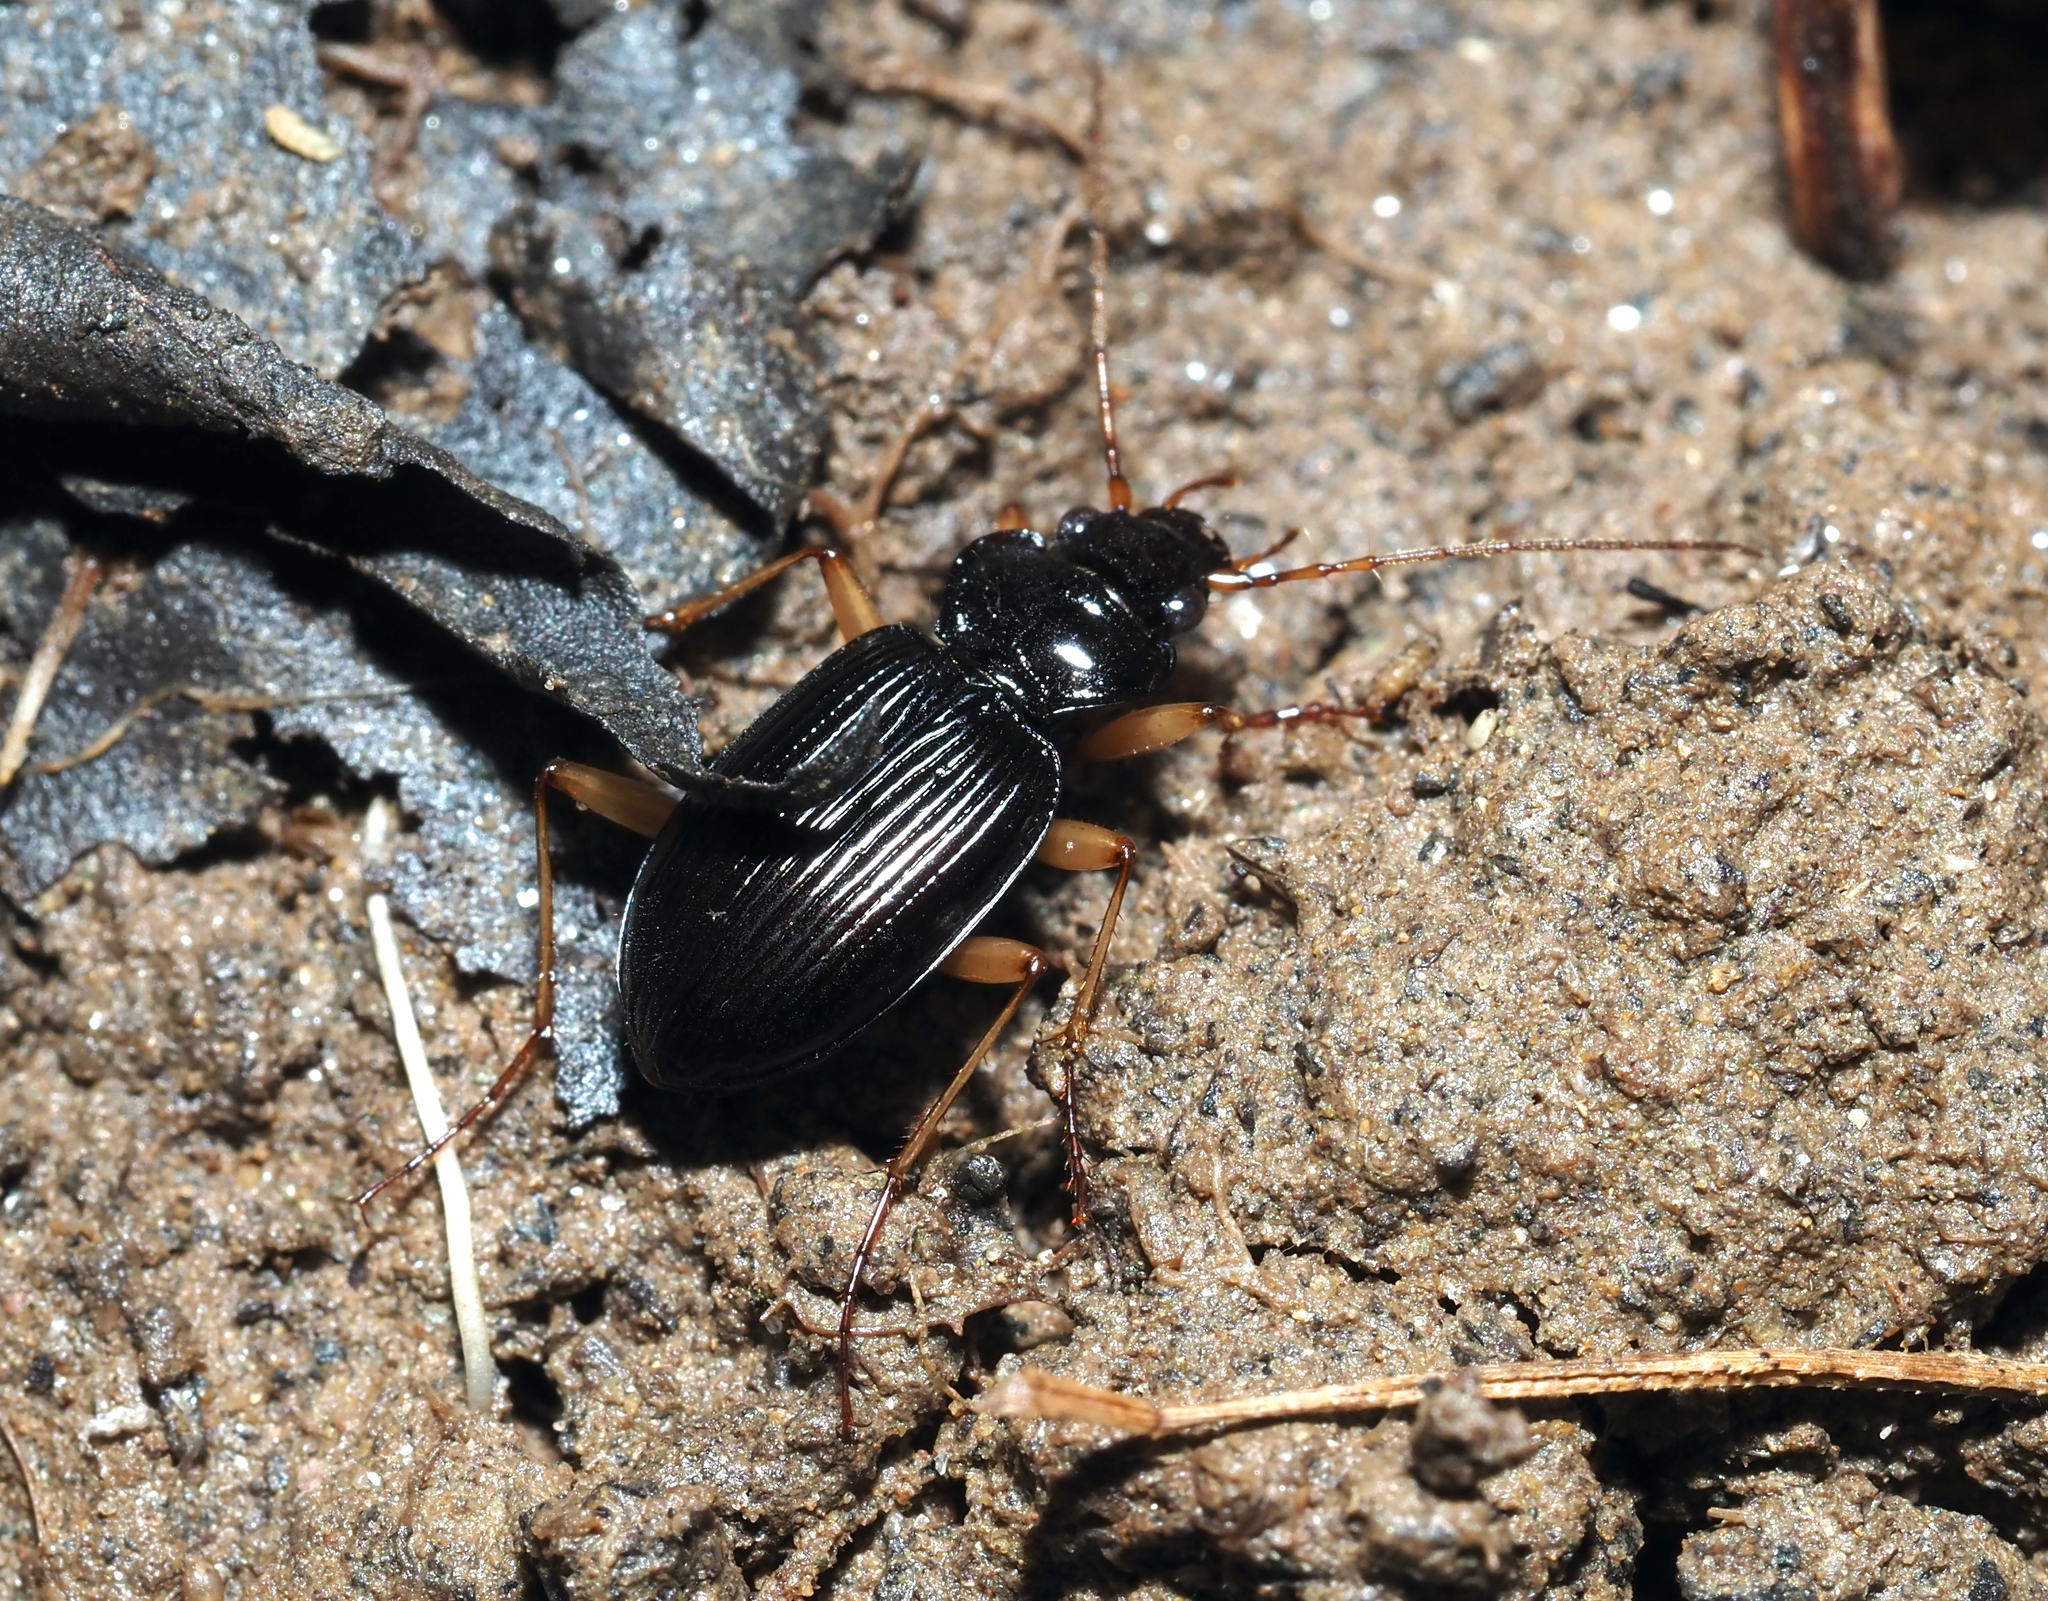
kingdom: Animalia
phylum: Arthropoda
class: Insecta
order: Coleoptera
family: Carabidae
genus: Nebria
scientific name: Nebria lacustris
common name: Lacustrine gazelle beetle
